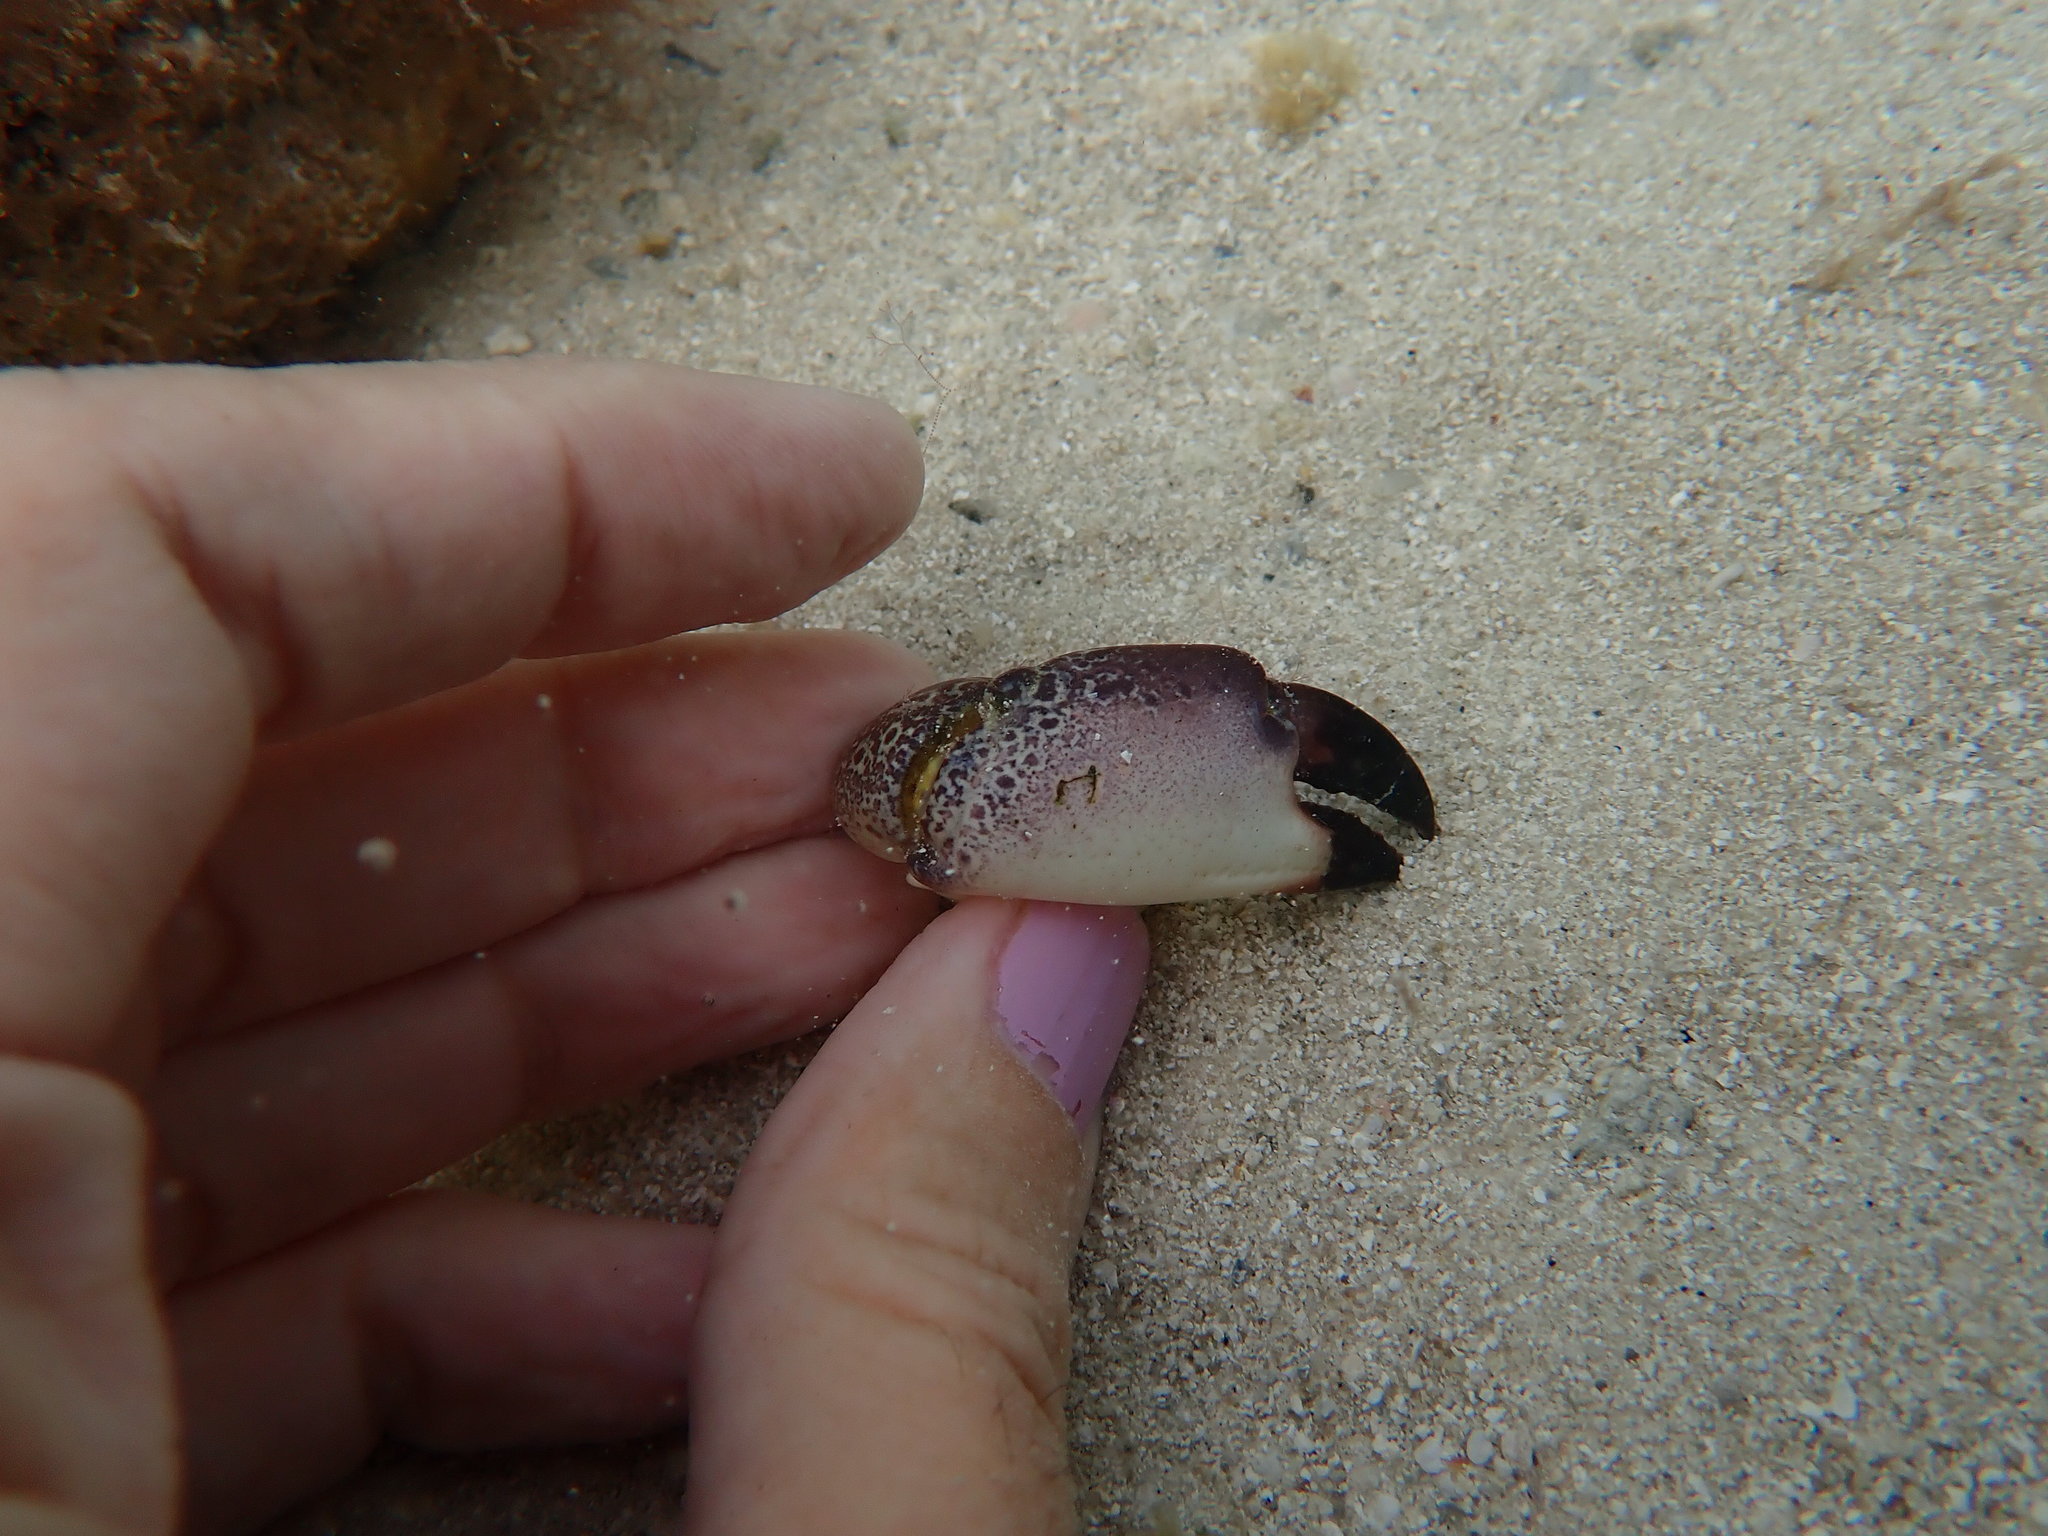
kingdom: Animalia
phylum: Arthropoda
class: Malacostraca
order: Decapoda
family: Menippidae
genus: Menippe
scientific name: Menippe mercenaria
